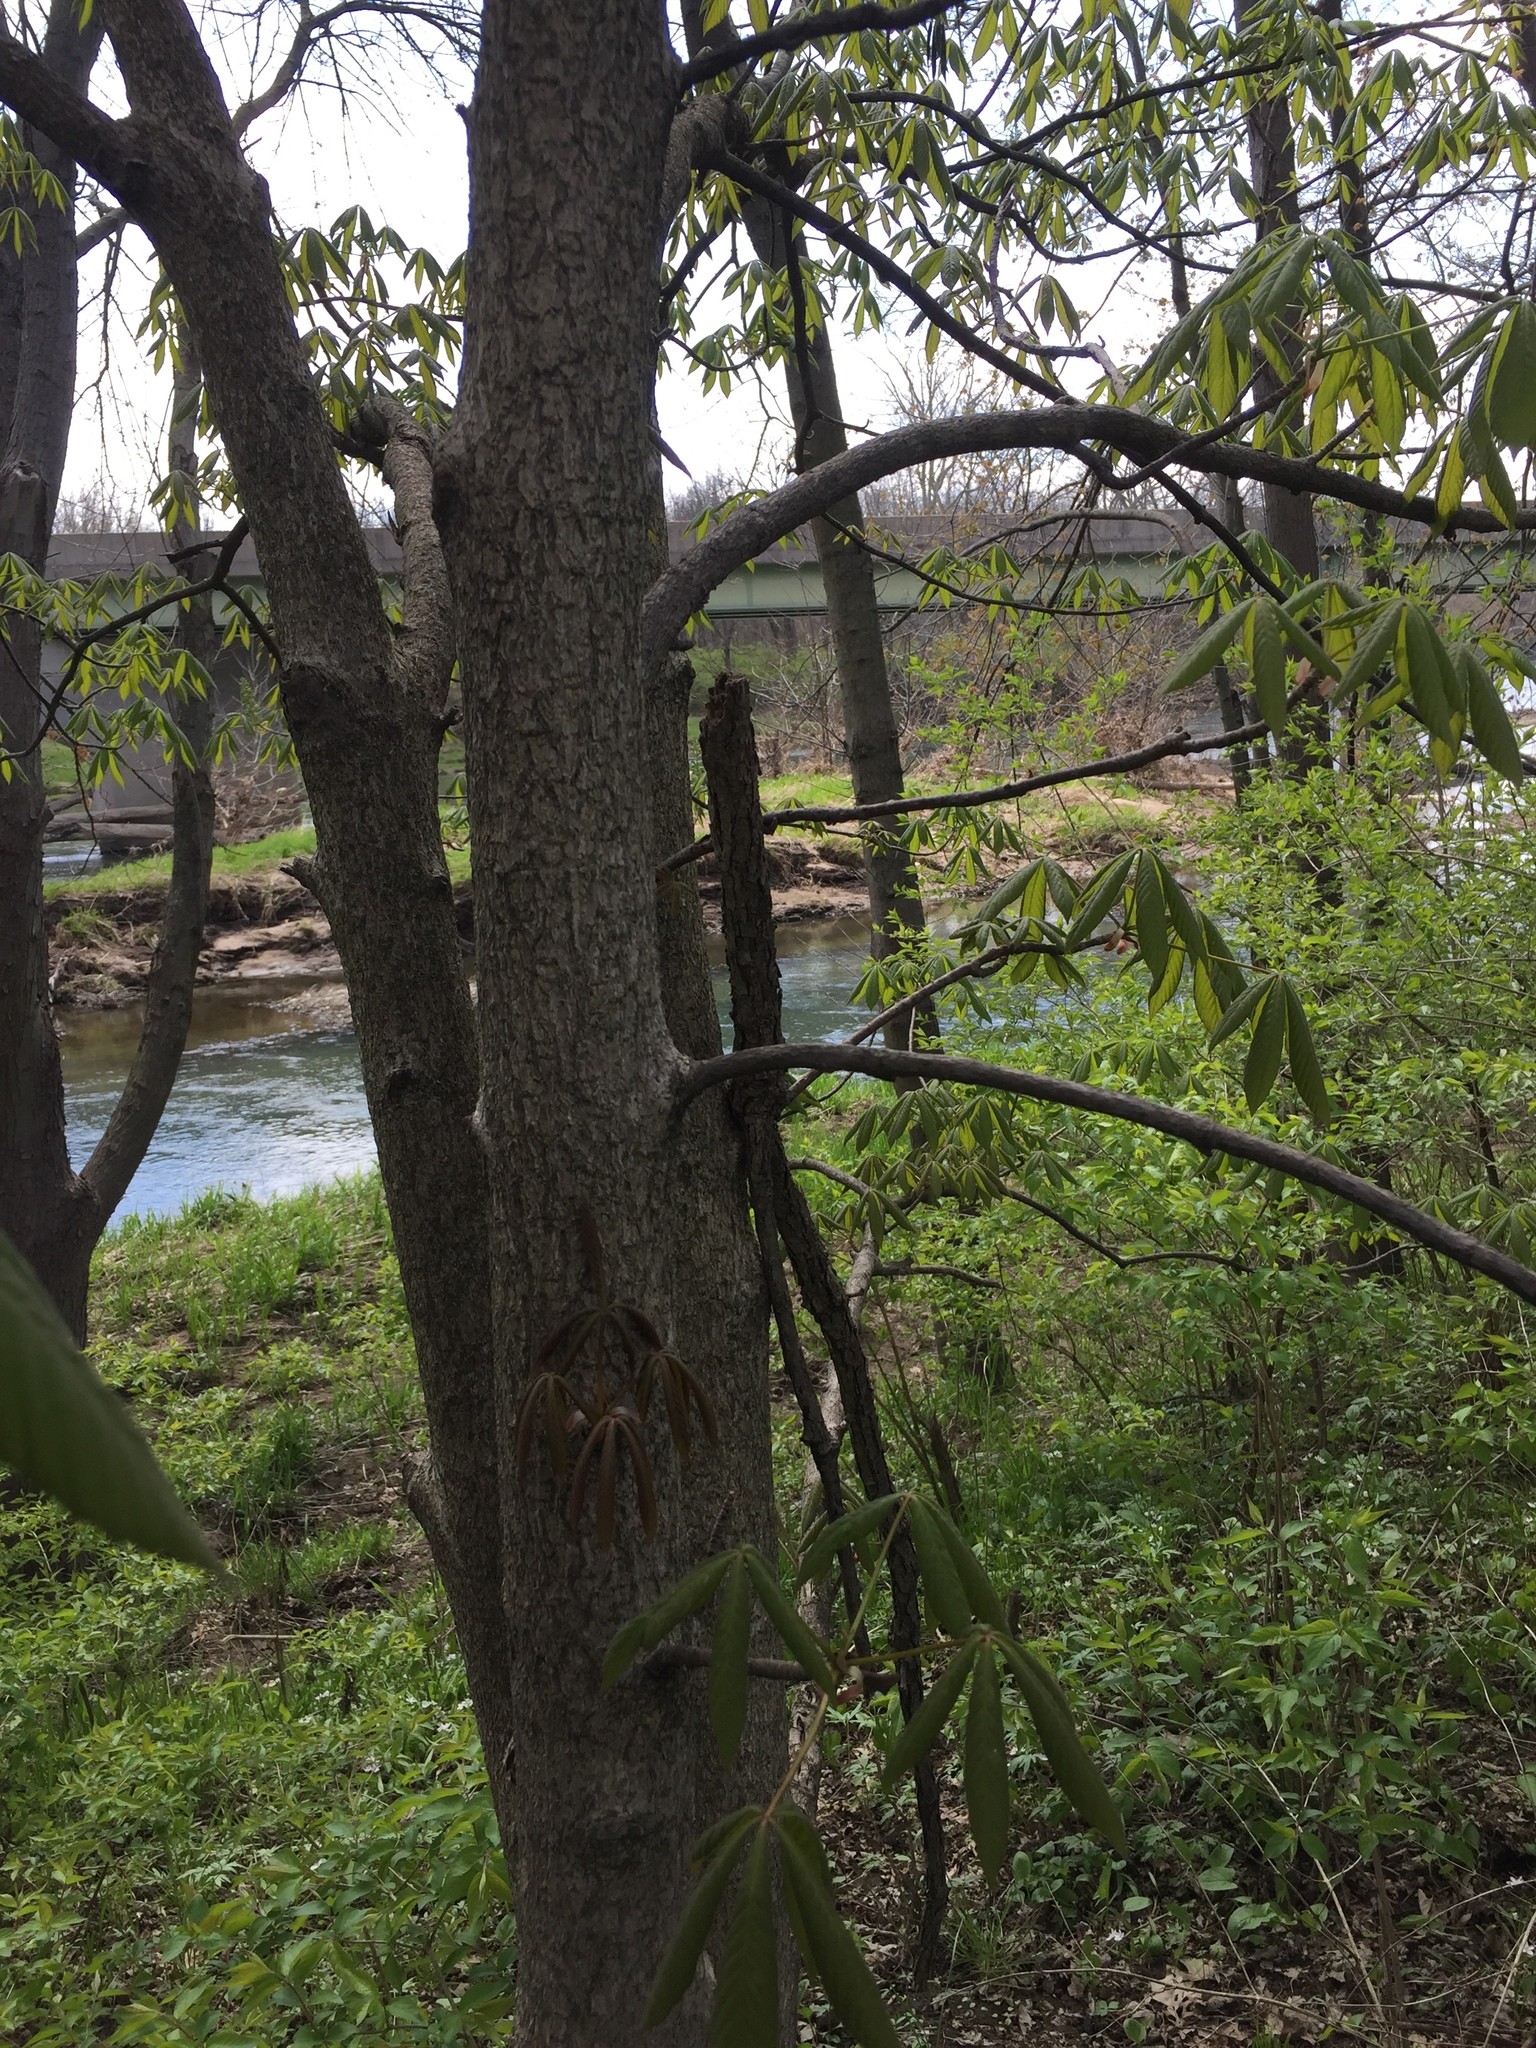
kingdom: Plantae
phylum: Tracheophyta
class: Magnoliopsida
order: Sapindales
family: Sapindaceae
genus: Aesculus
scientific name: Aesculus glabra
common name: Ohio buckeye
